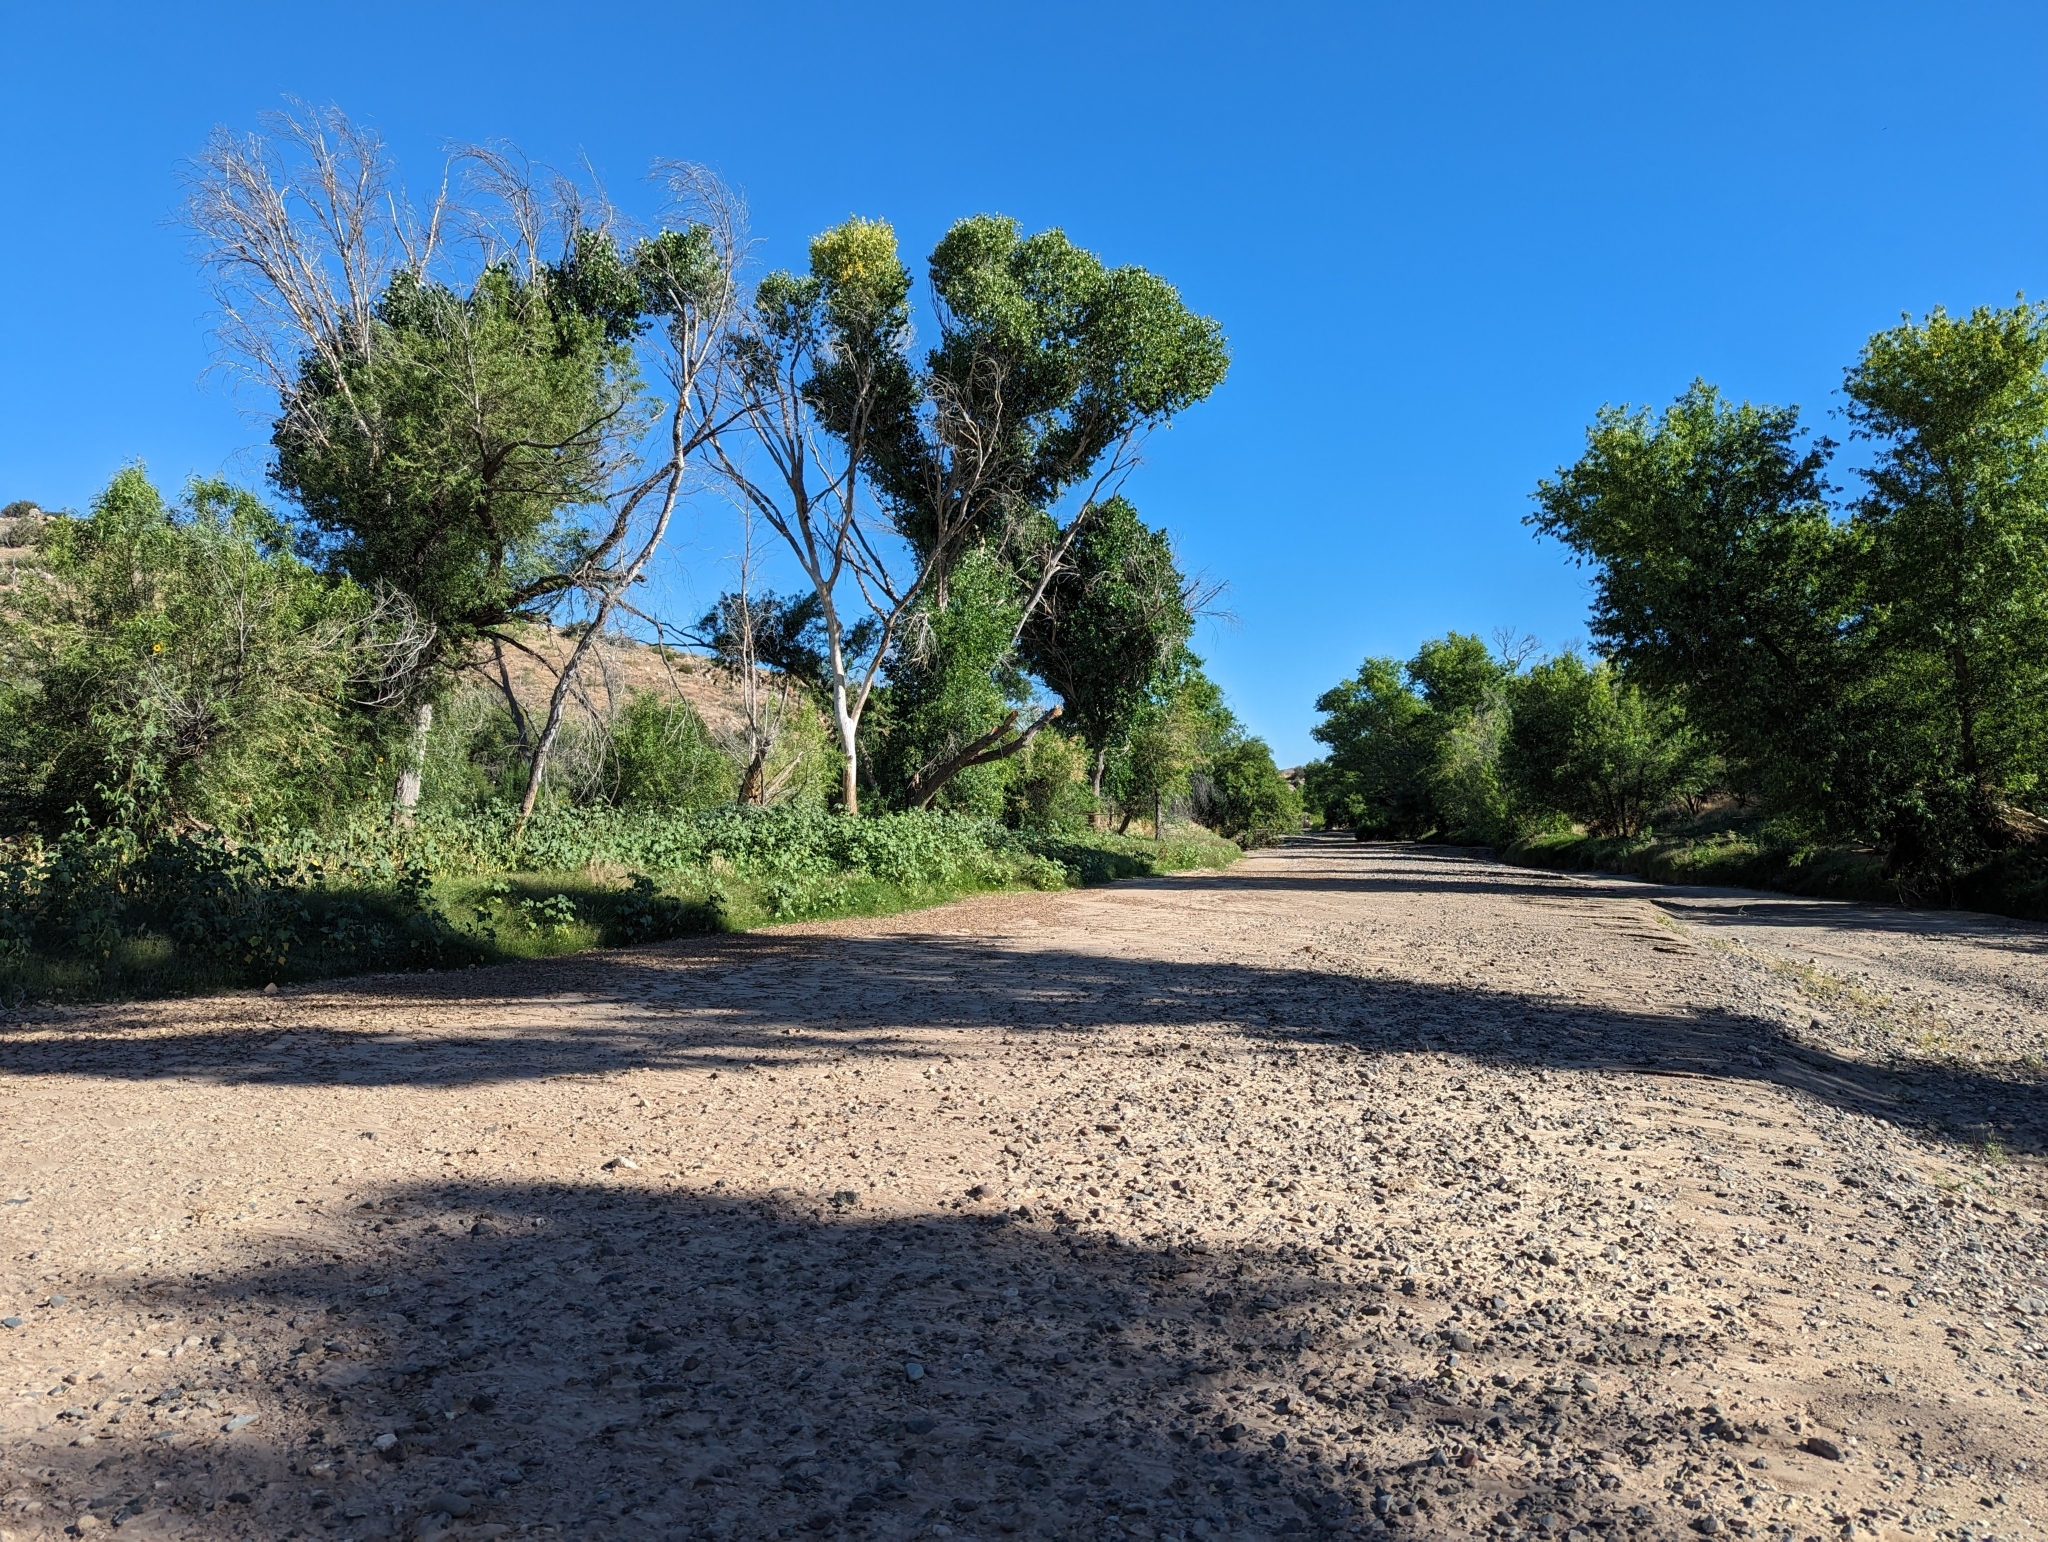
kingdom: Plantae
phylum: Tracheophyta
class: Magnoliopsida
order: Malpighiales
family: Salicaceae
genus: Populus
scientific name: Populus fremontii
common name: Fremont's cottonwood
